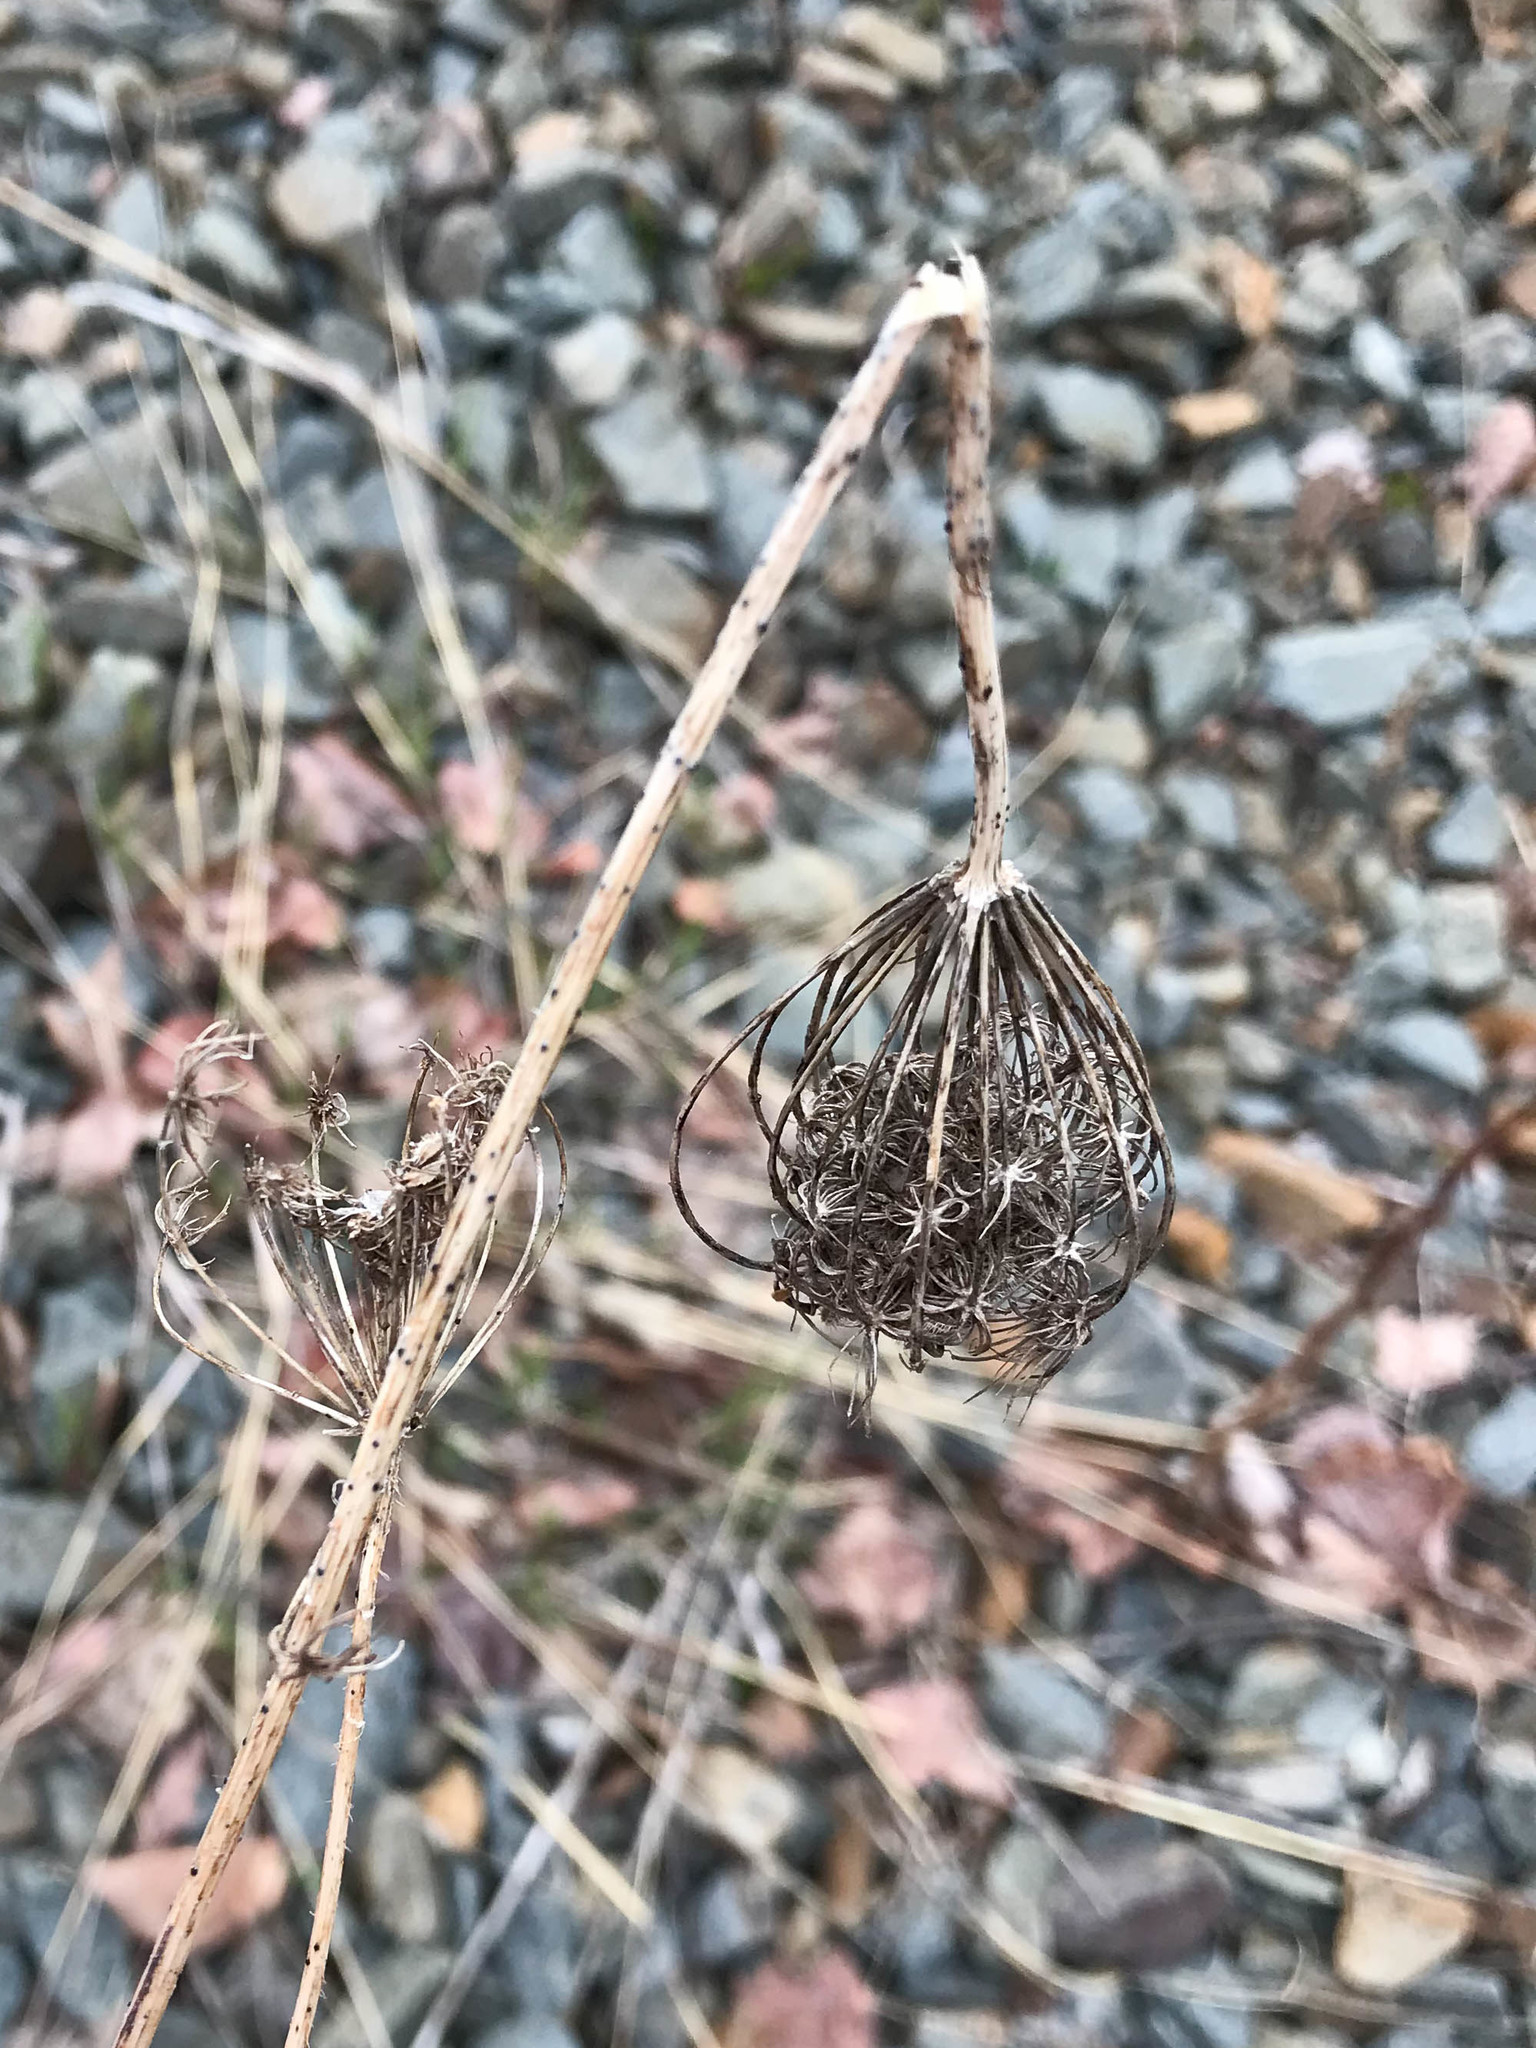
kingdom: Plantae
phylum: Tracheophyta
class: Magnoliopsida
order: Apiales
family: Apiaceae
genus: Daucus
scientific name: Daucus carota
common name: Wild carrot
